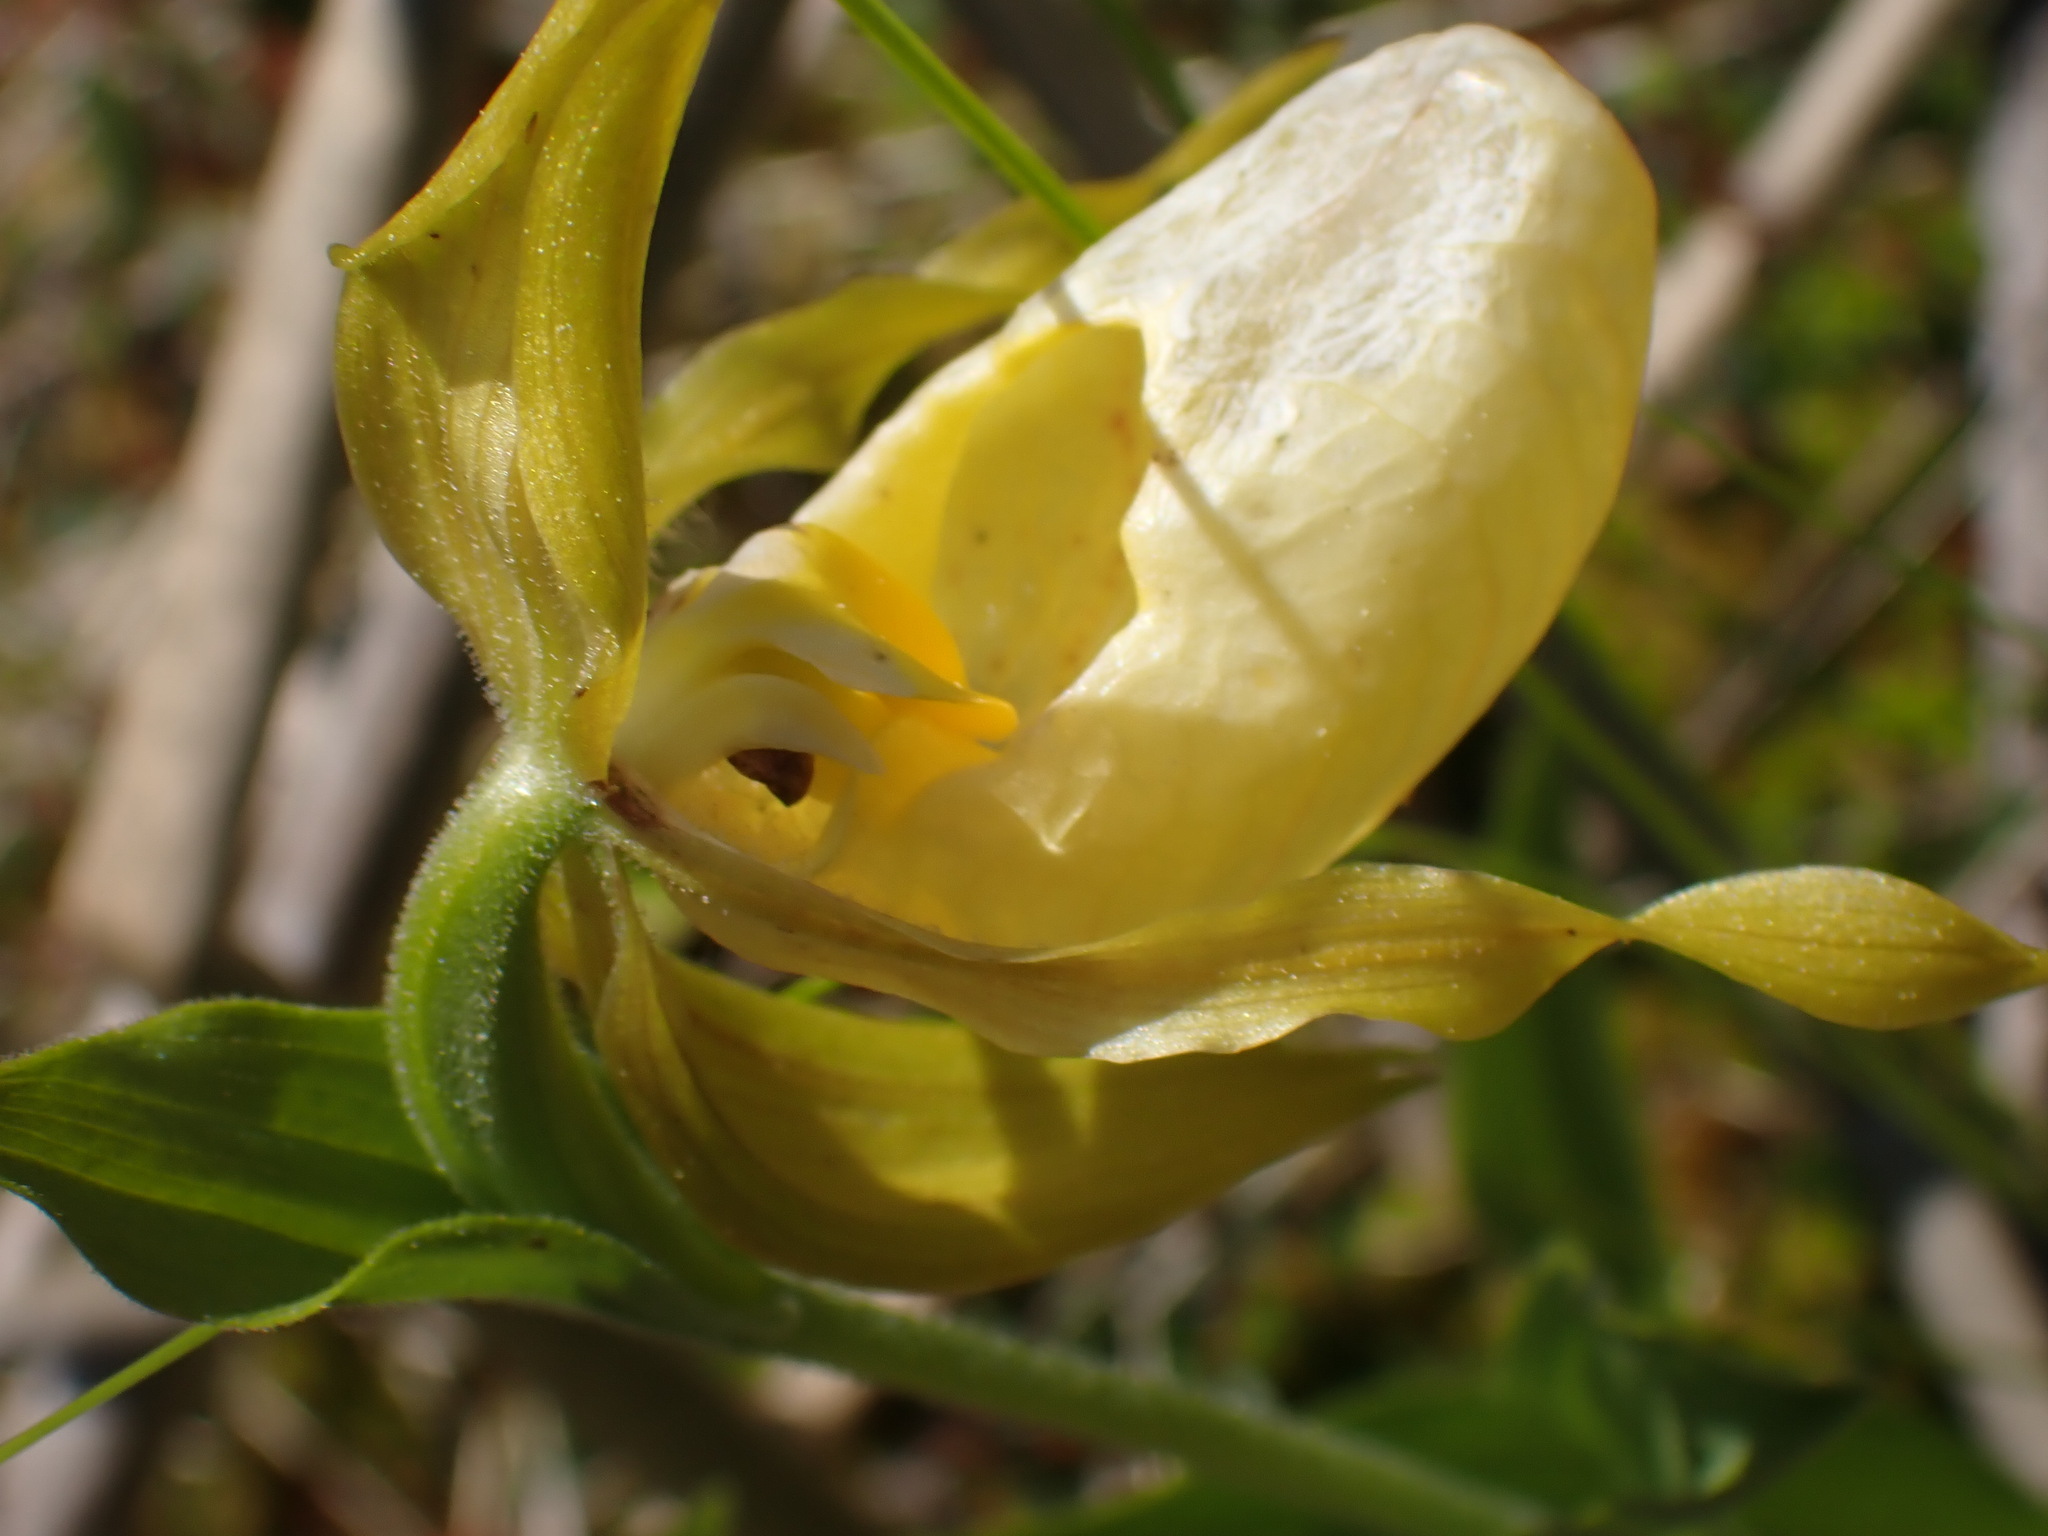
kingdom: Plantae
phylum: Tracheophyta
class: Liliopsida
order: Asparagales
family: Orchidaceae
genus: Cypripedium
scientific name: Cypripedium parviflorum
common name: American yellow lady's-slipper
